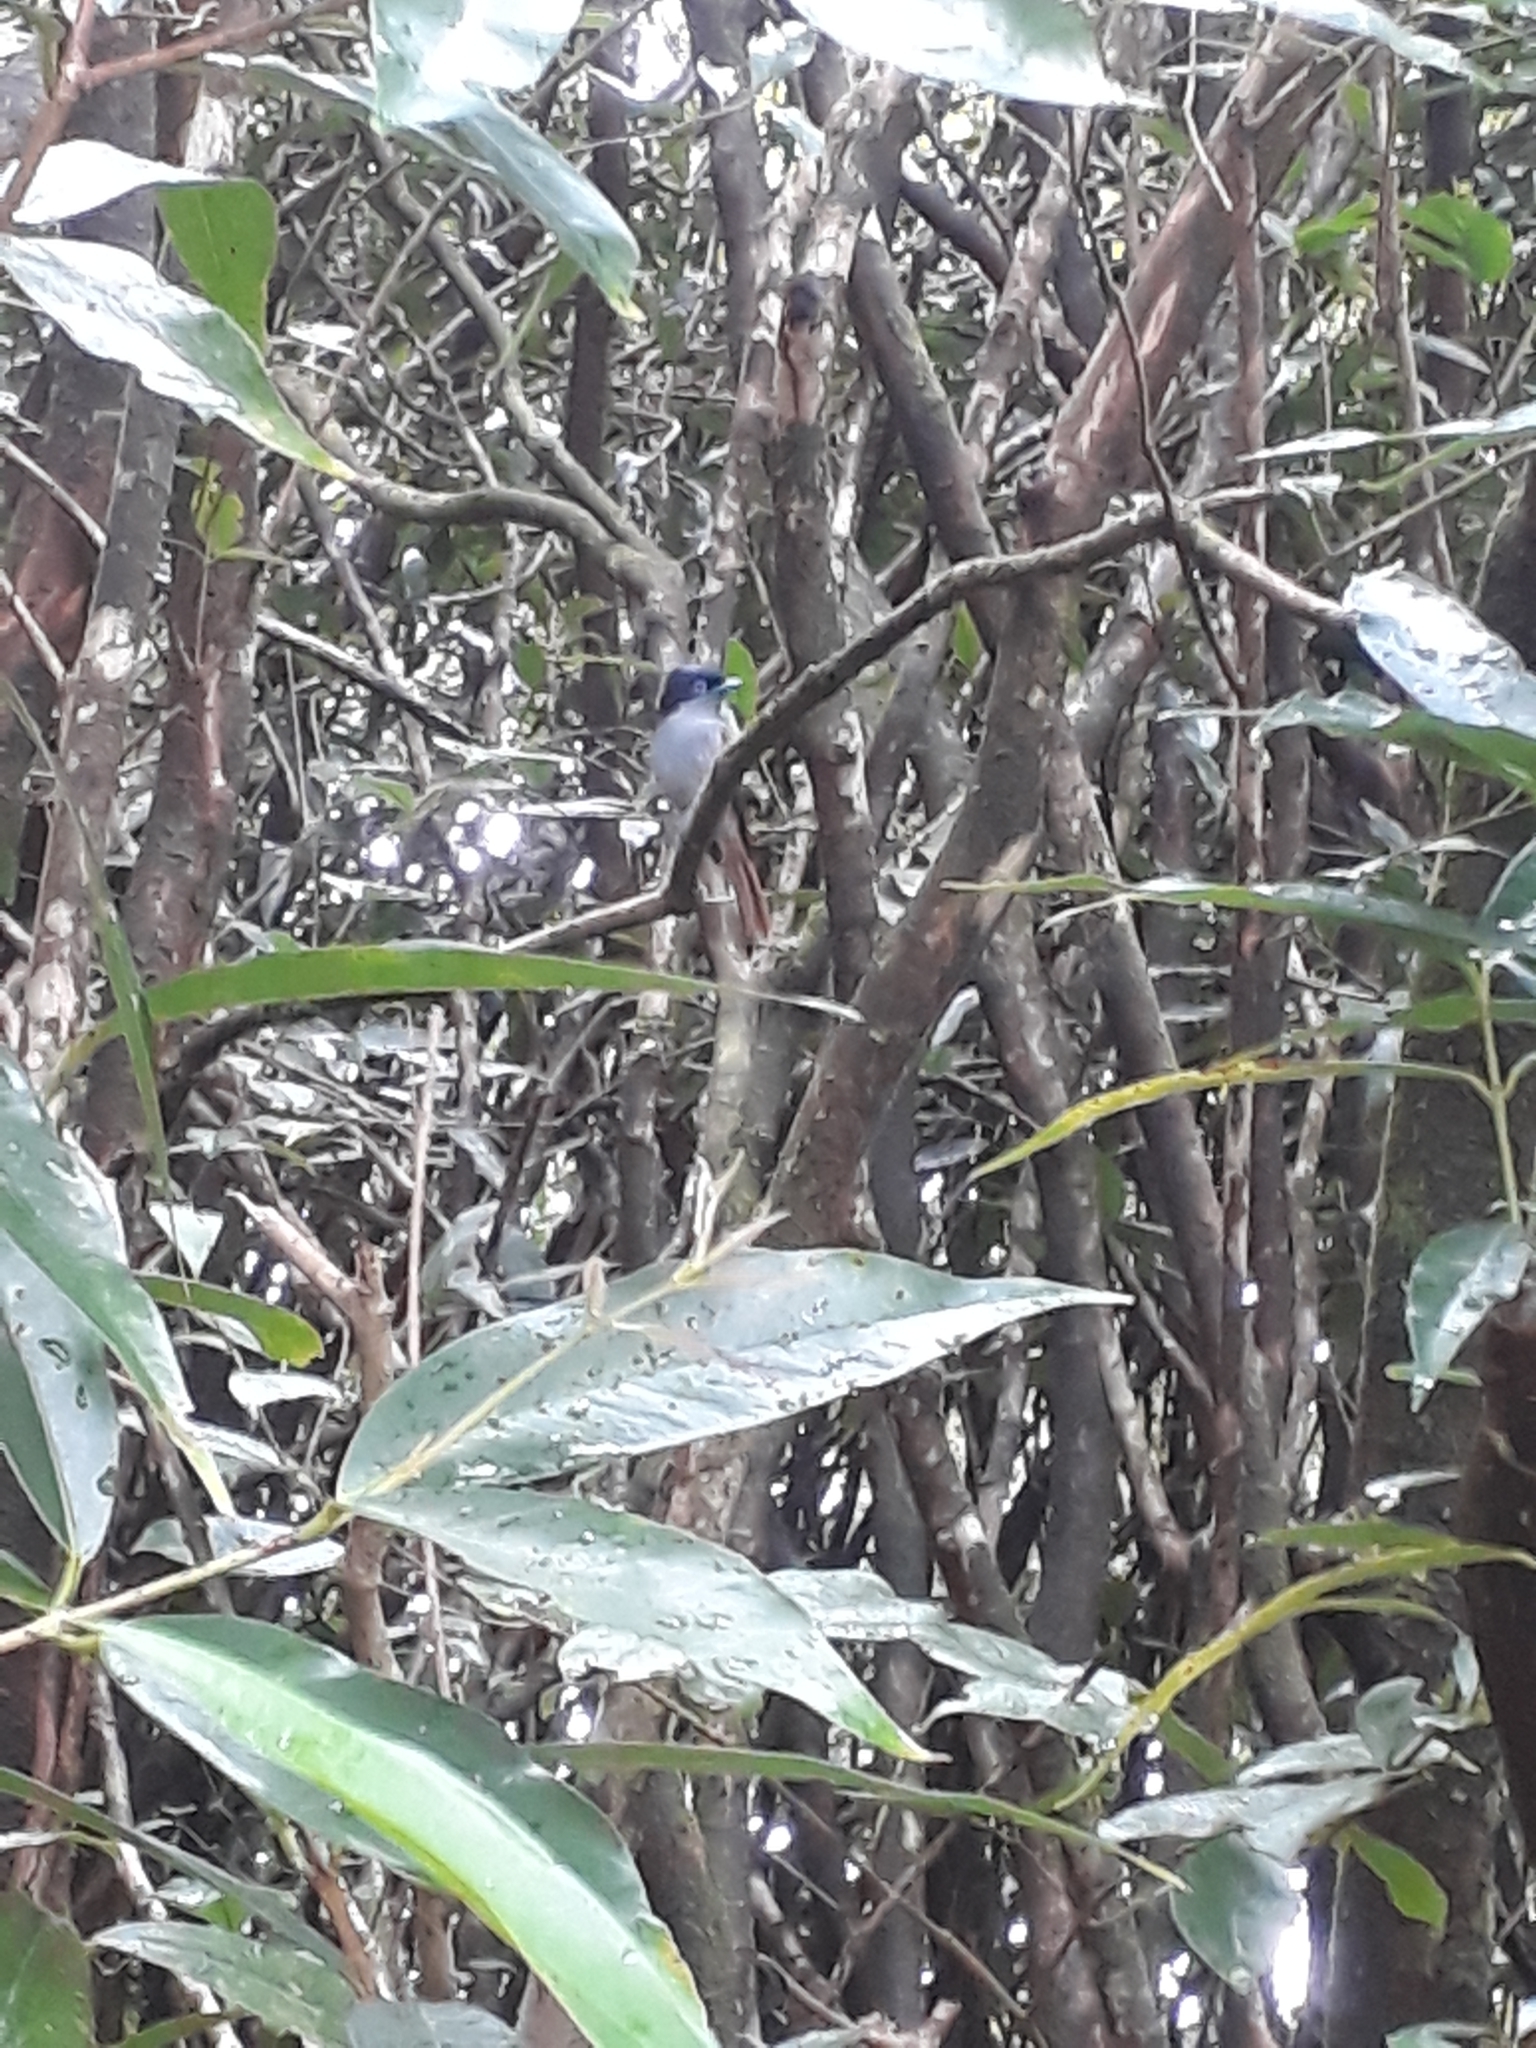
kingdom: Animalia
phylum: Chordata
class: Aves
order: Passeriformes
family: Monarchidae
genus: Terpsiphone
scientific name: Terpsiphone bourbonnensis
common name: Mascarene paradise flycatcher
